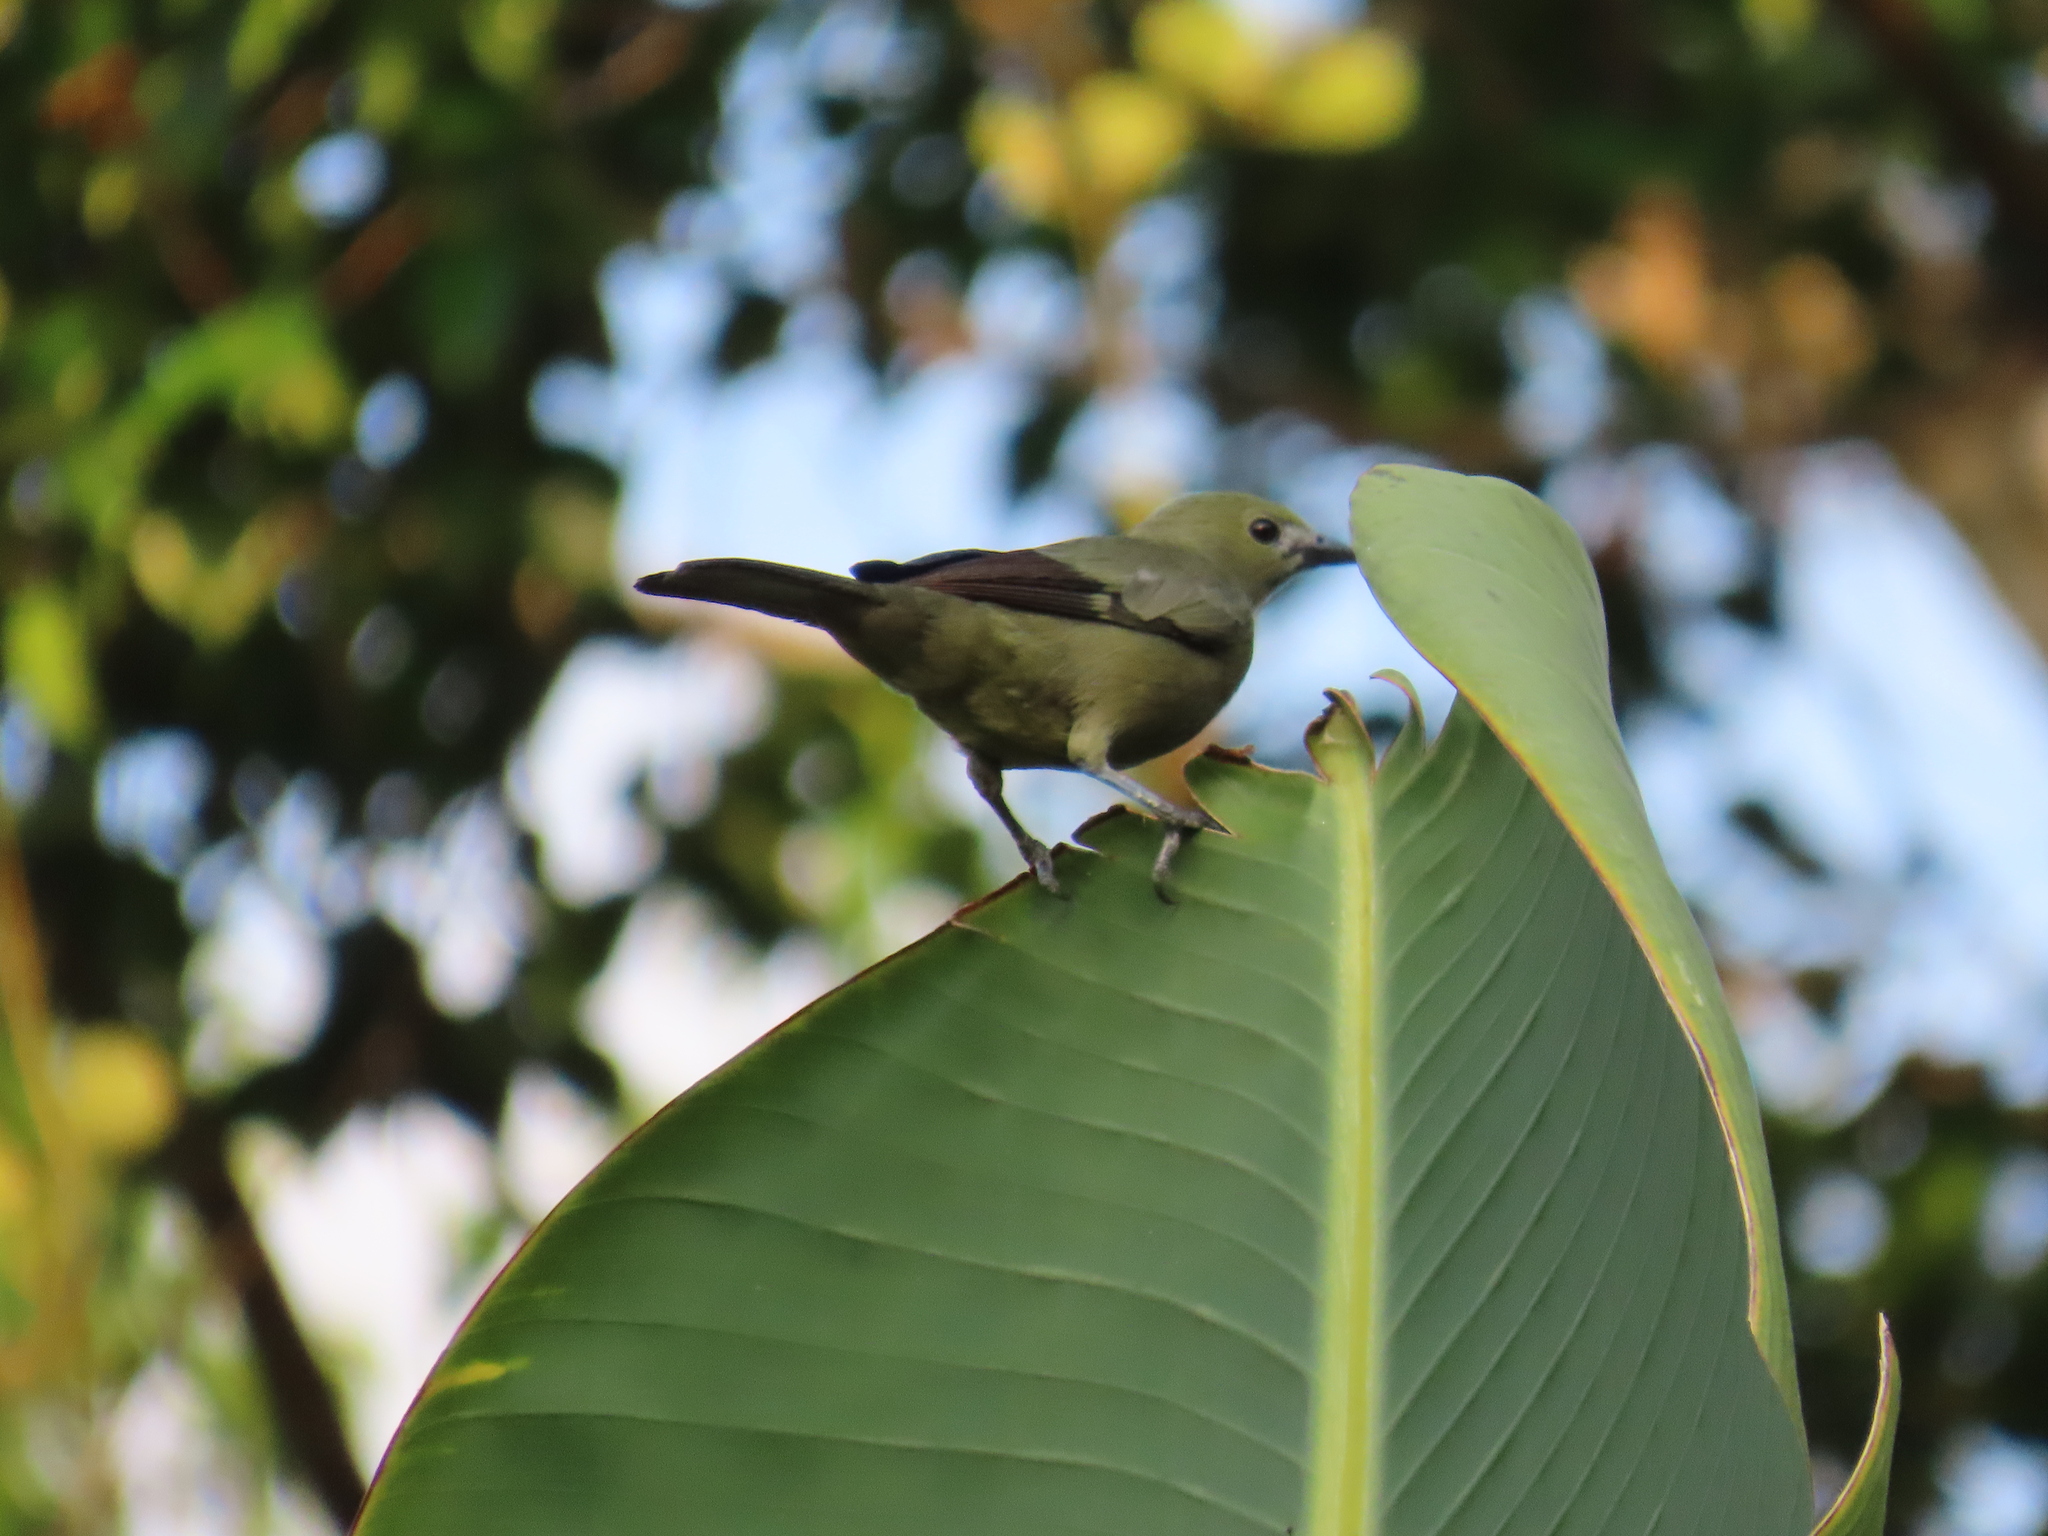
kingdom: Animalia
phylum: Chordata
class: Aves
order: Passeriformes
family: Thraupidae
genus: Thraupis
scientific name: Thraupis palmarum
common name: Palm tanager
